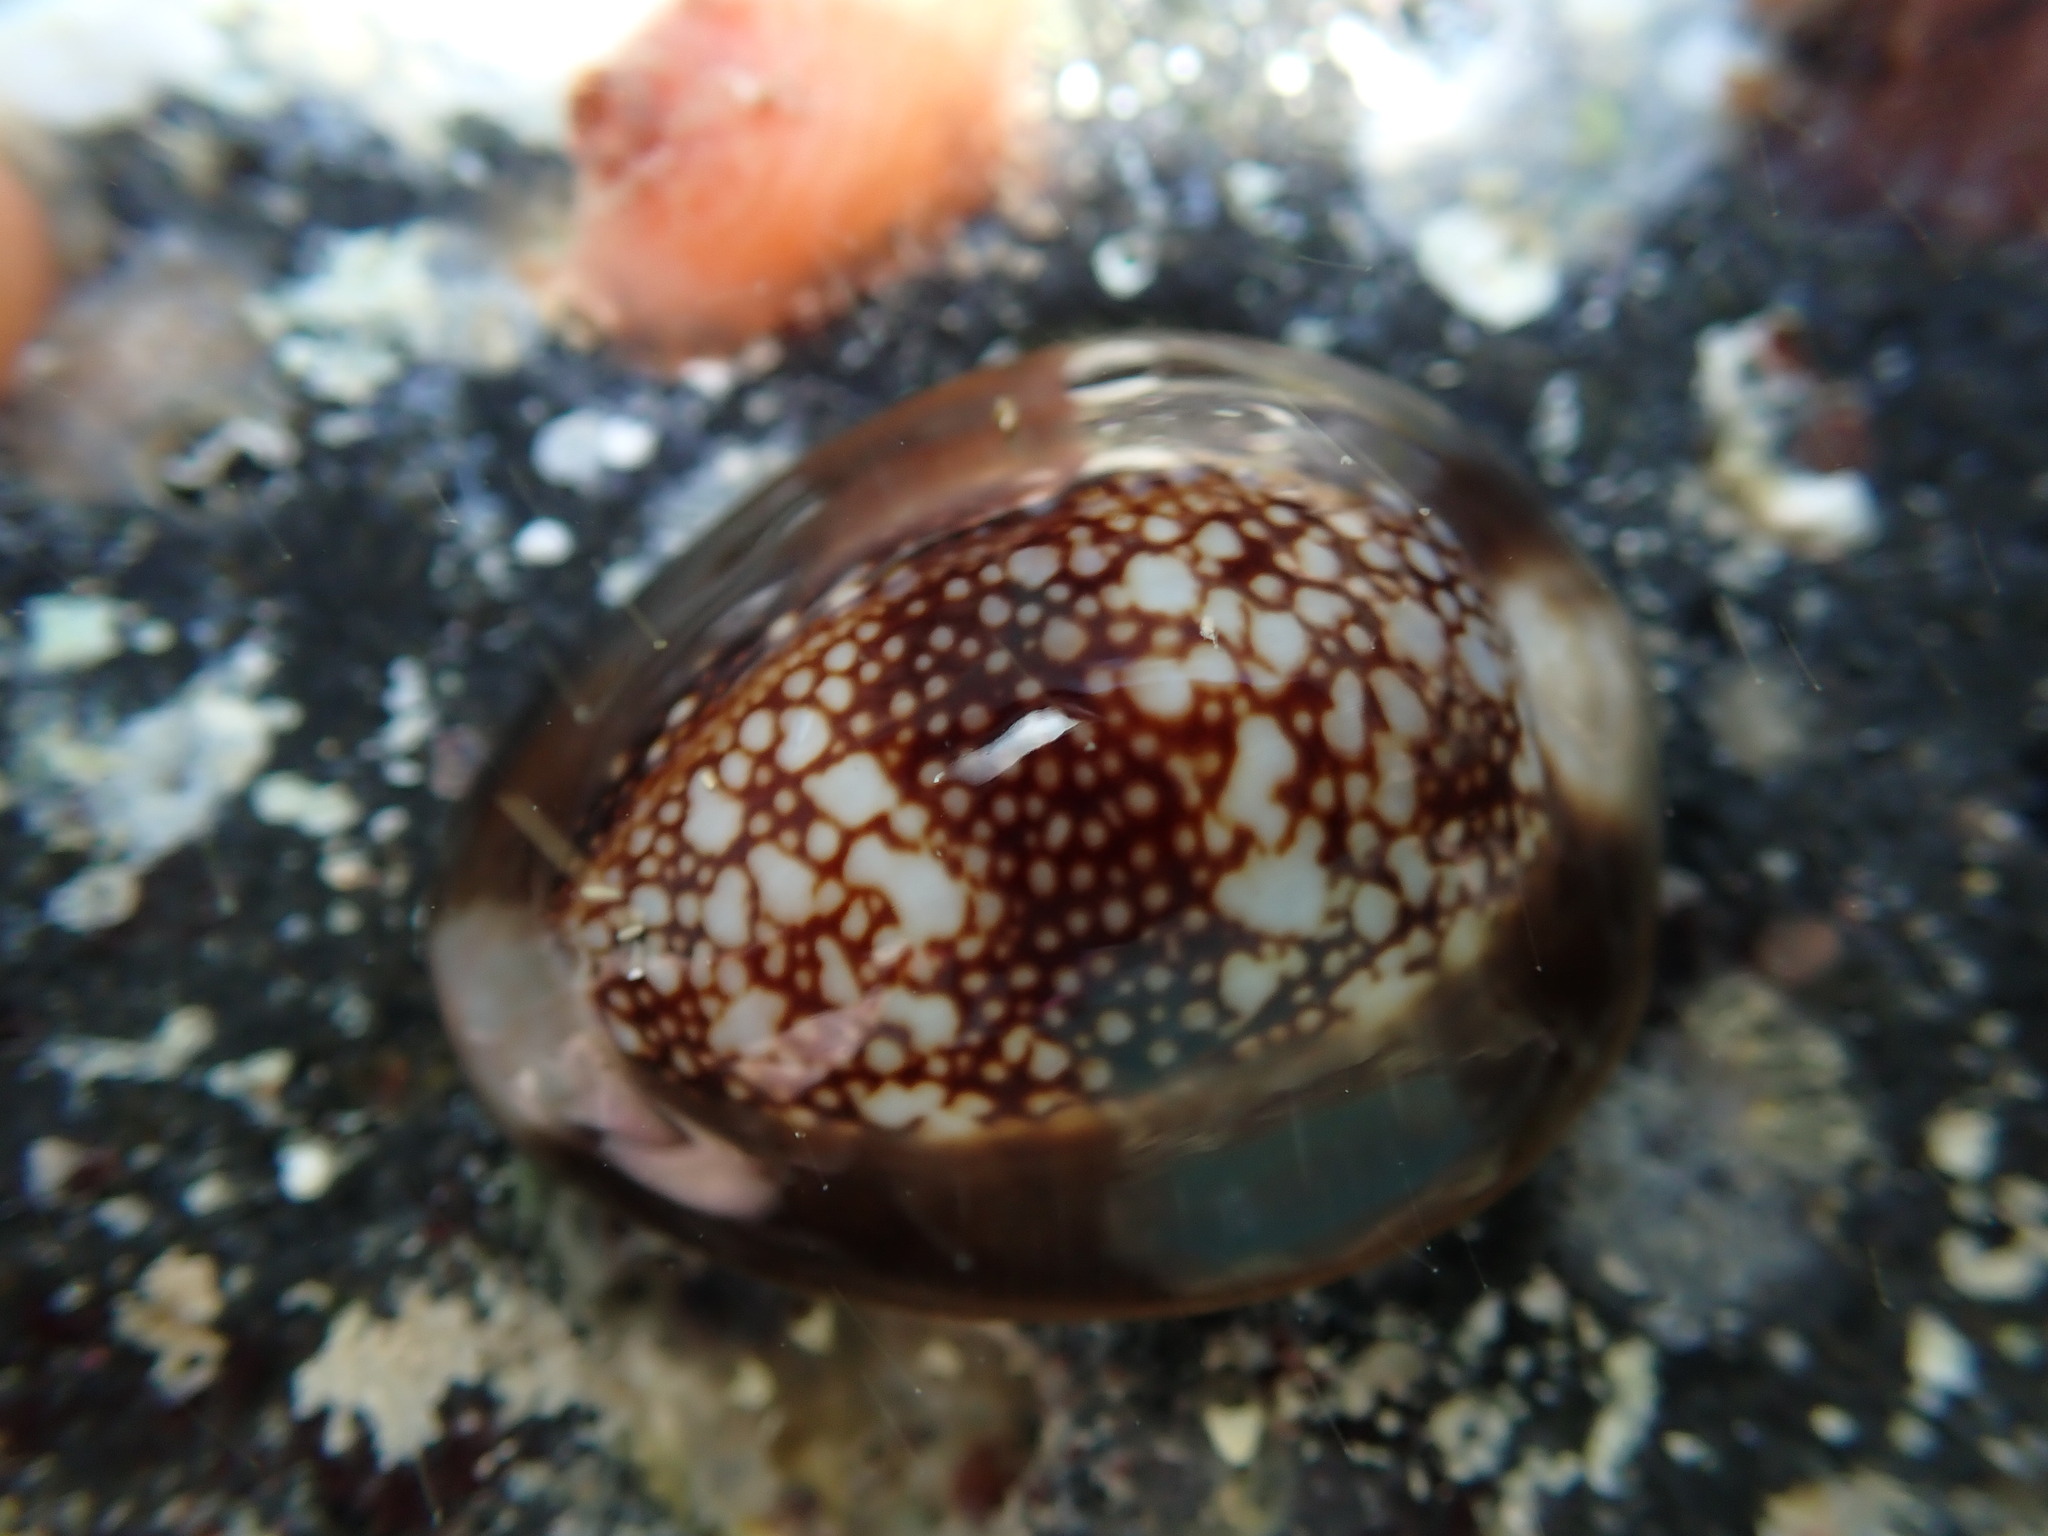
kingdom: Animalia
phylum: Mollusca
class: Gastropoda
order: Littorinimorpha
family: Cypraeidae
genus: Monetaria
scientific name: Monetaria caputophidii
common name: Snake's head cowry
